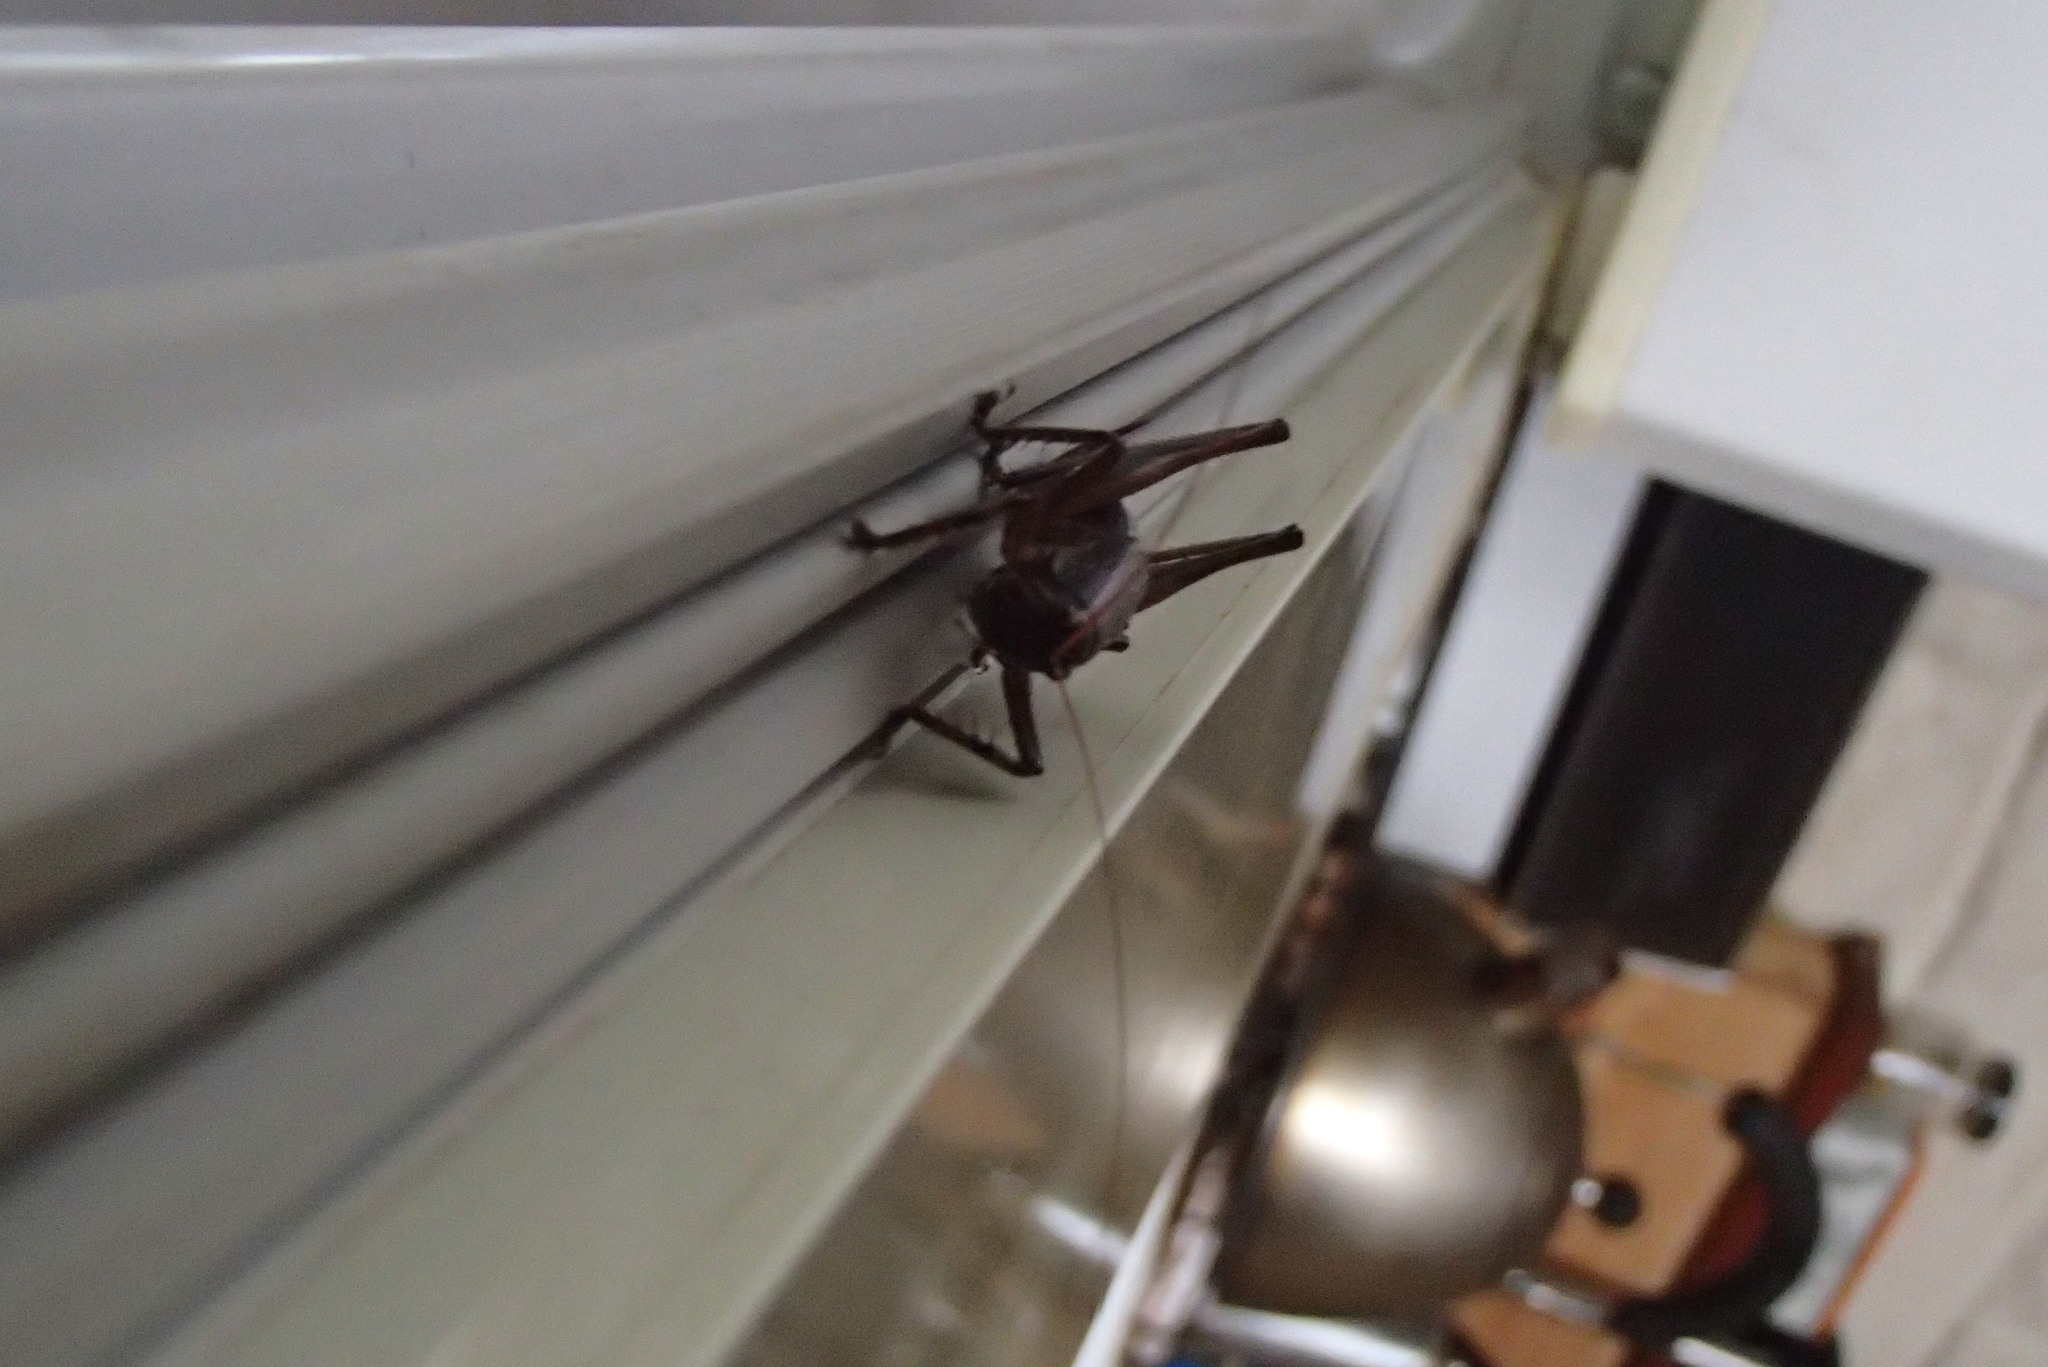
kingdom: Animalia
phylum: Arthropoda
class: Insecta
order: Orthoptera
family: Tettigoniidae
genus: Requena
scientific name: Requena baraya
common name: Common eastern requena
